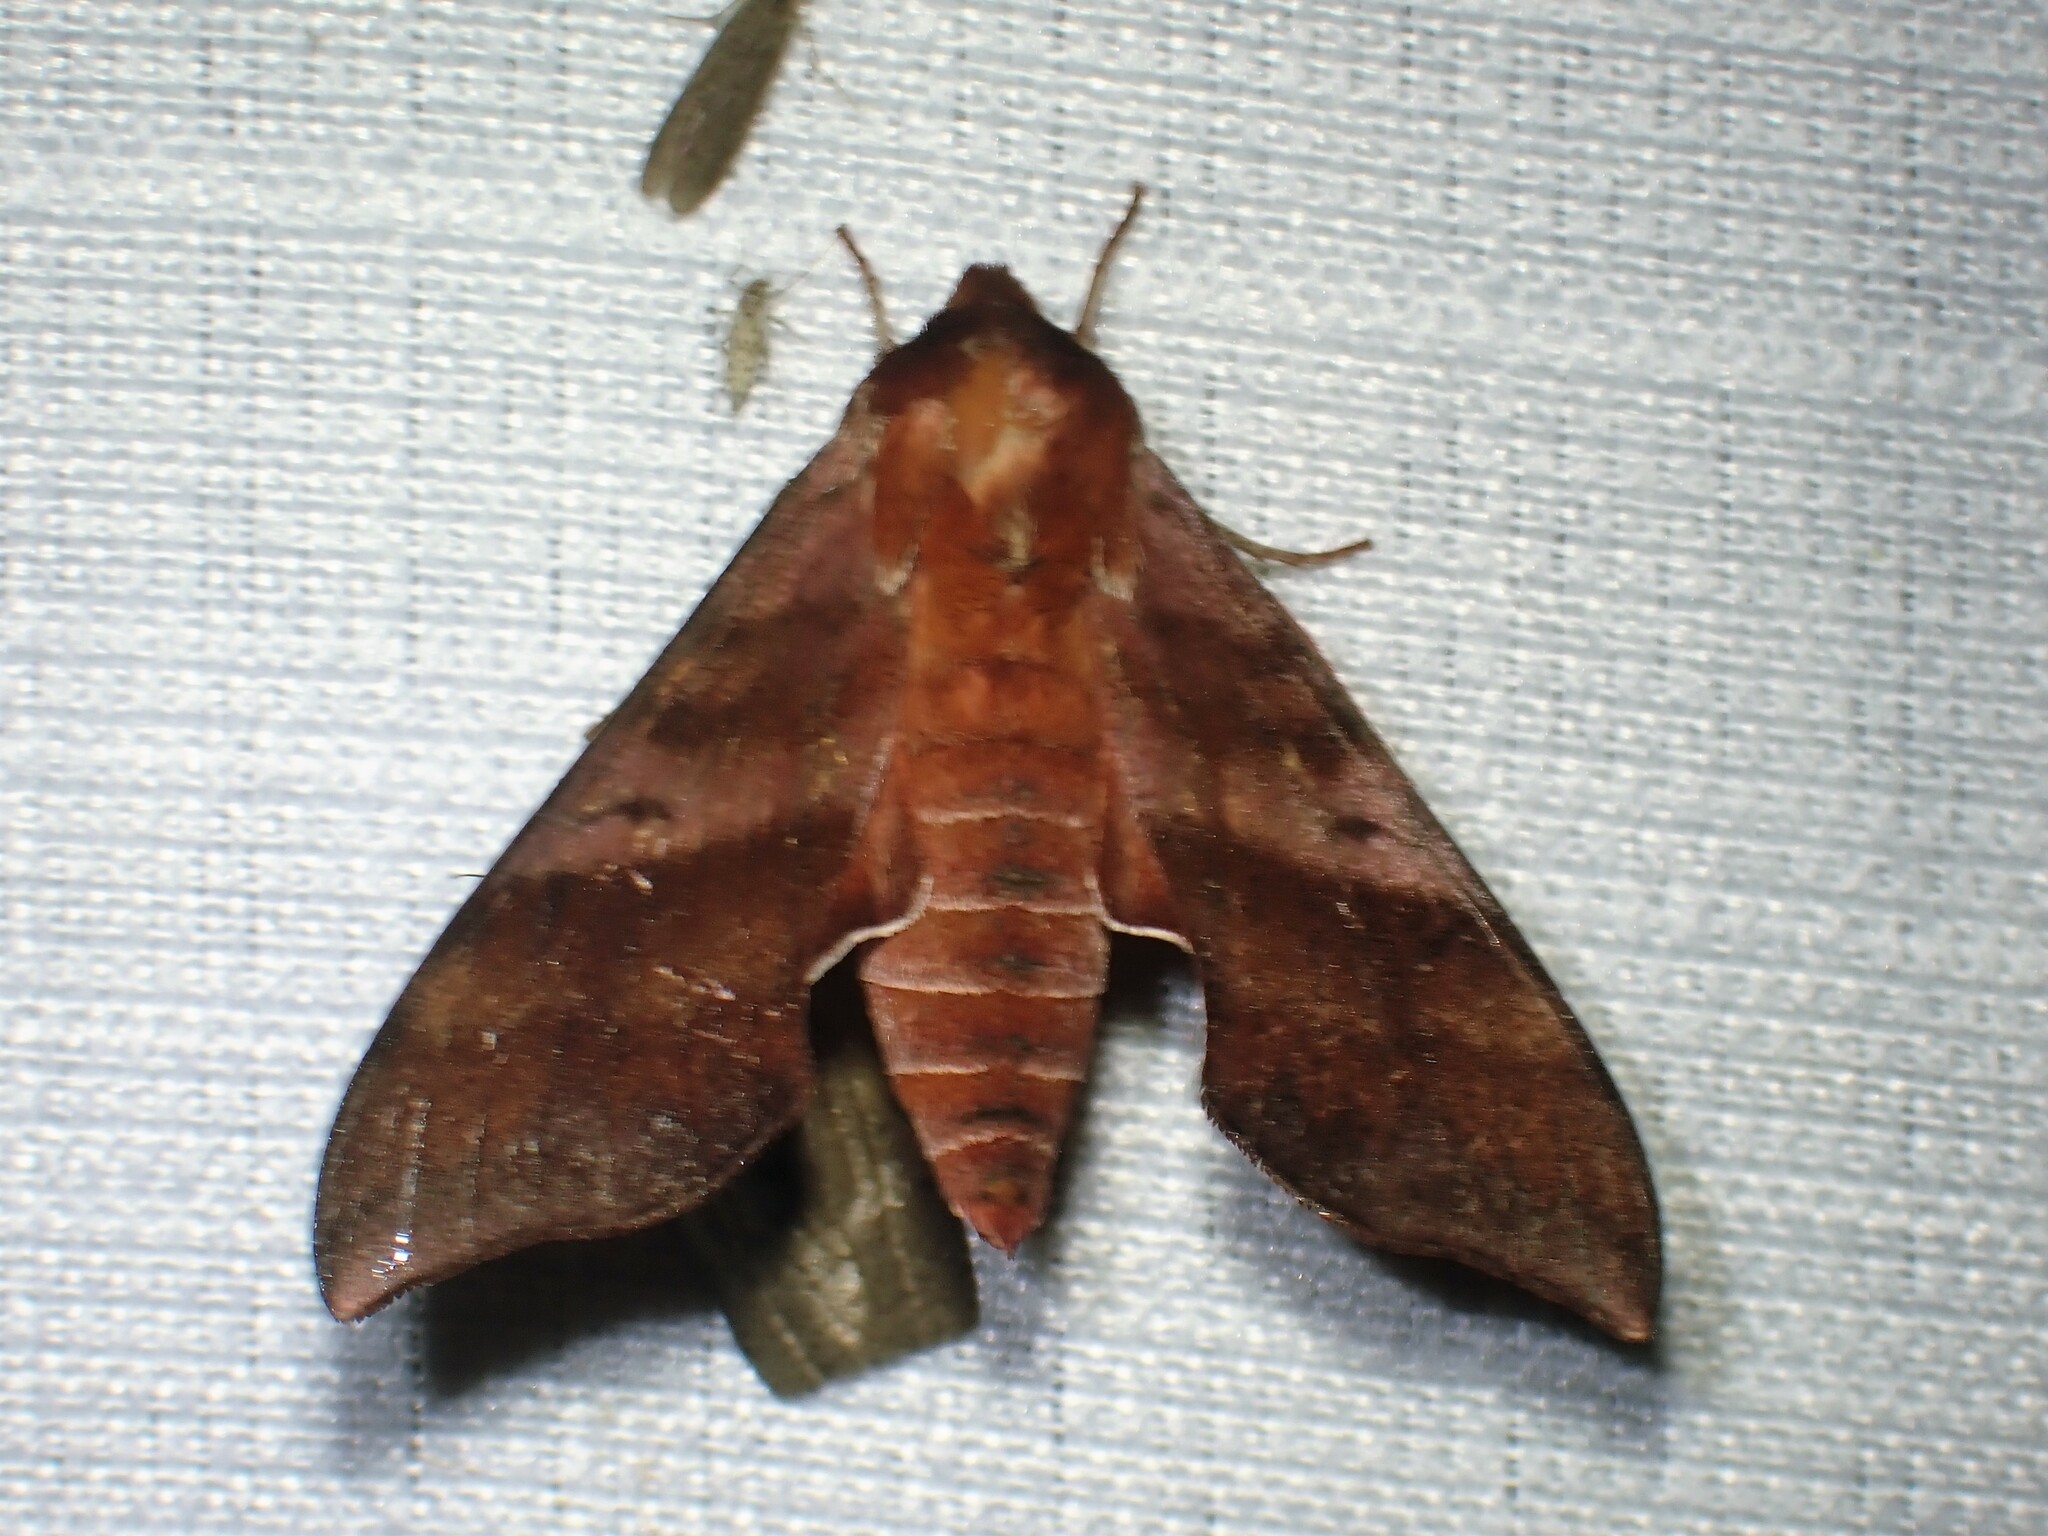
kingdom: Animalia
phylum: Arthropoda
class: Insecta
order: Lepidoptera
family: Sphingidae
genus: Darapsa
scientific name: Darapsa choerilus
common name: Azalea sphinx
